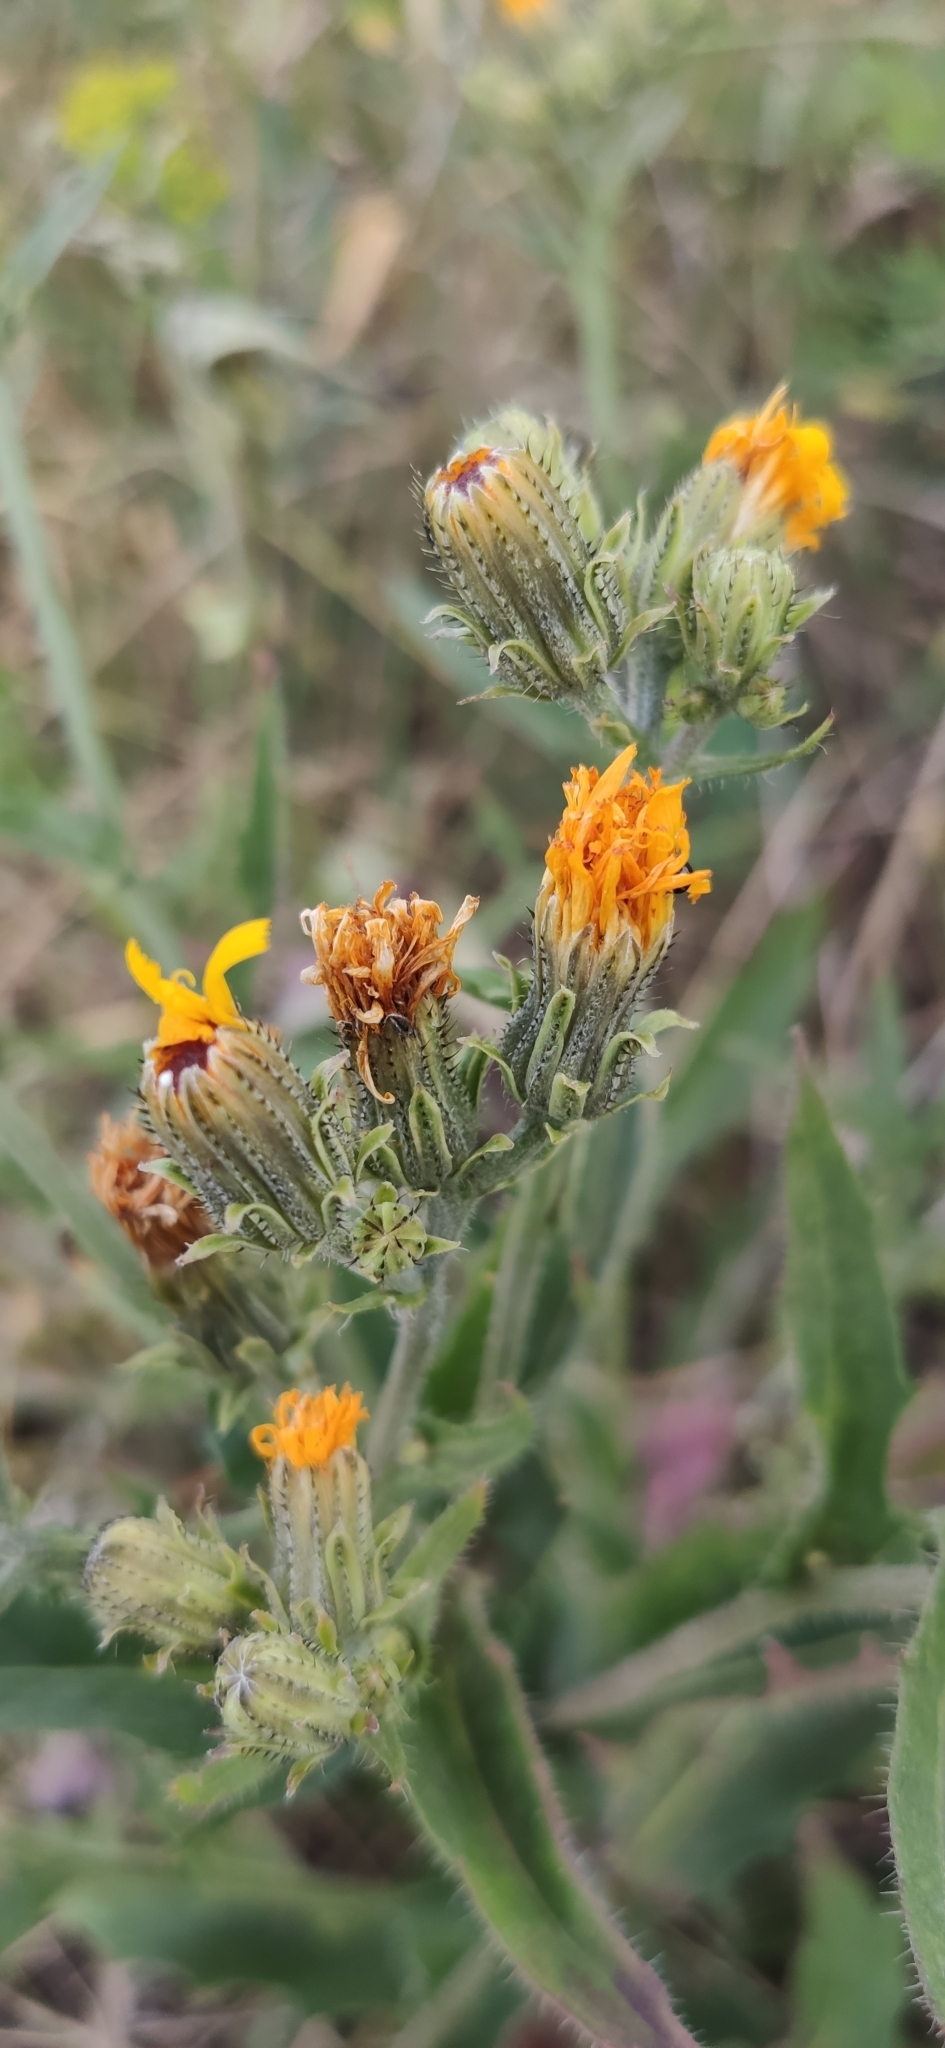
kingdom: Plantae
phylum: Tracheophyta
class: Magnoliopsida
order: Asterales
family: Asteraceae
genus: Picris
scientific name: Picris hieracioides
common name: Hawkweed oxtongue
